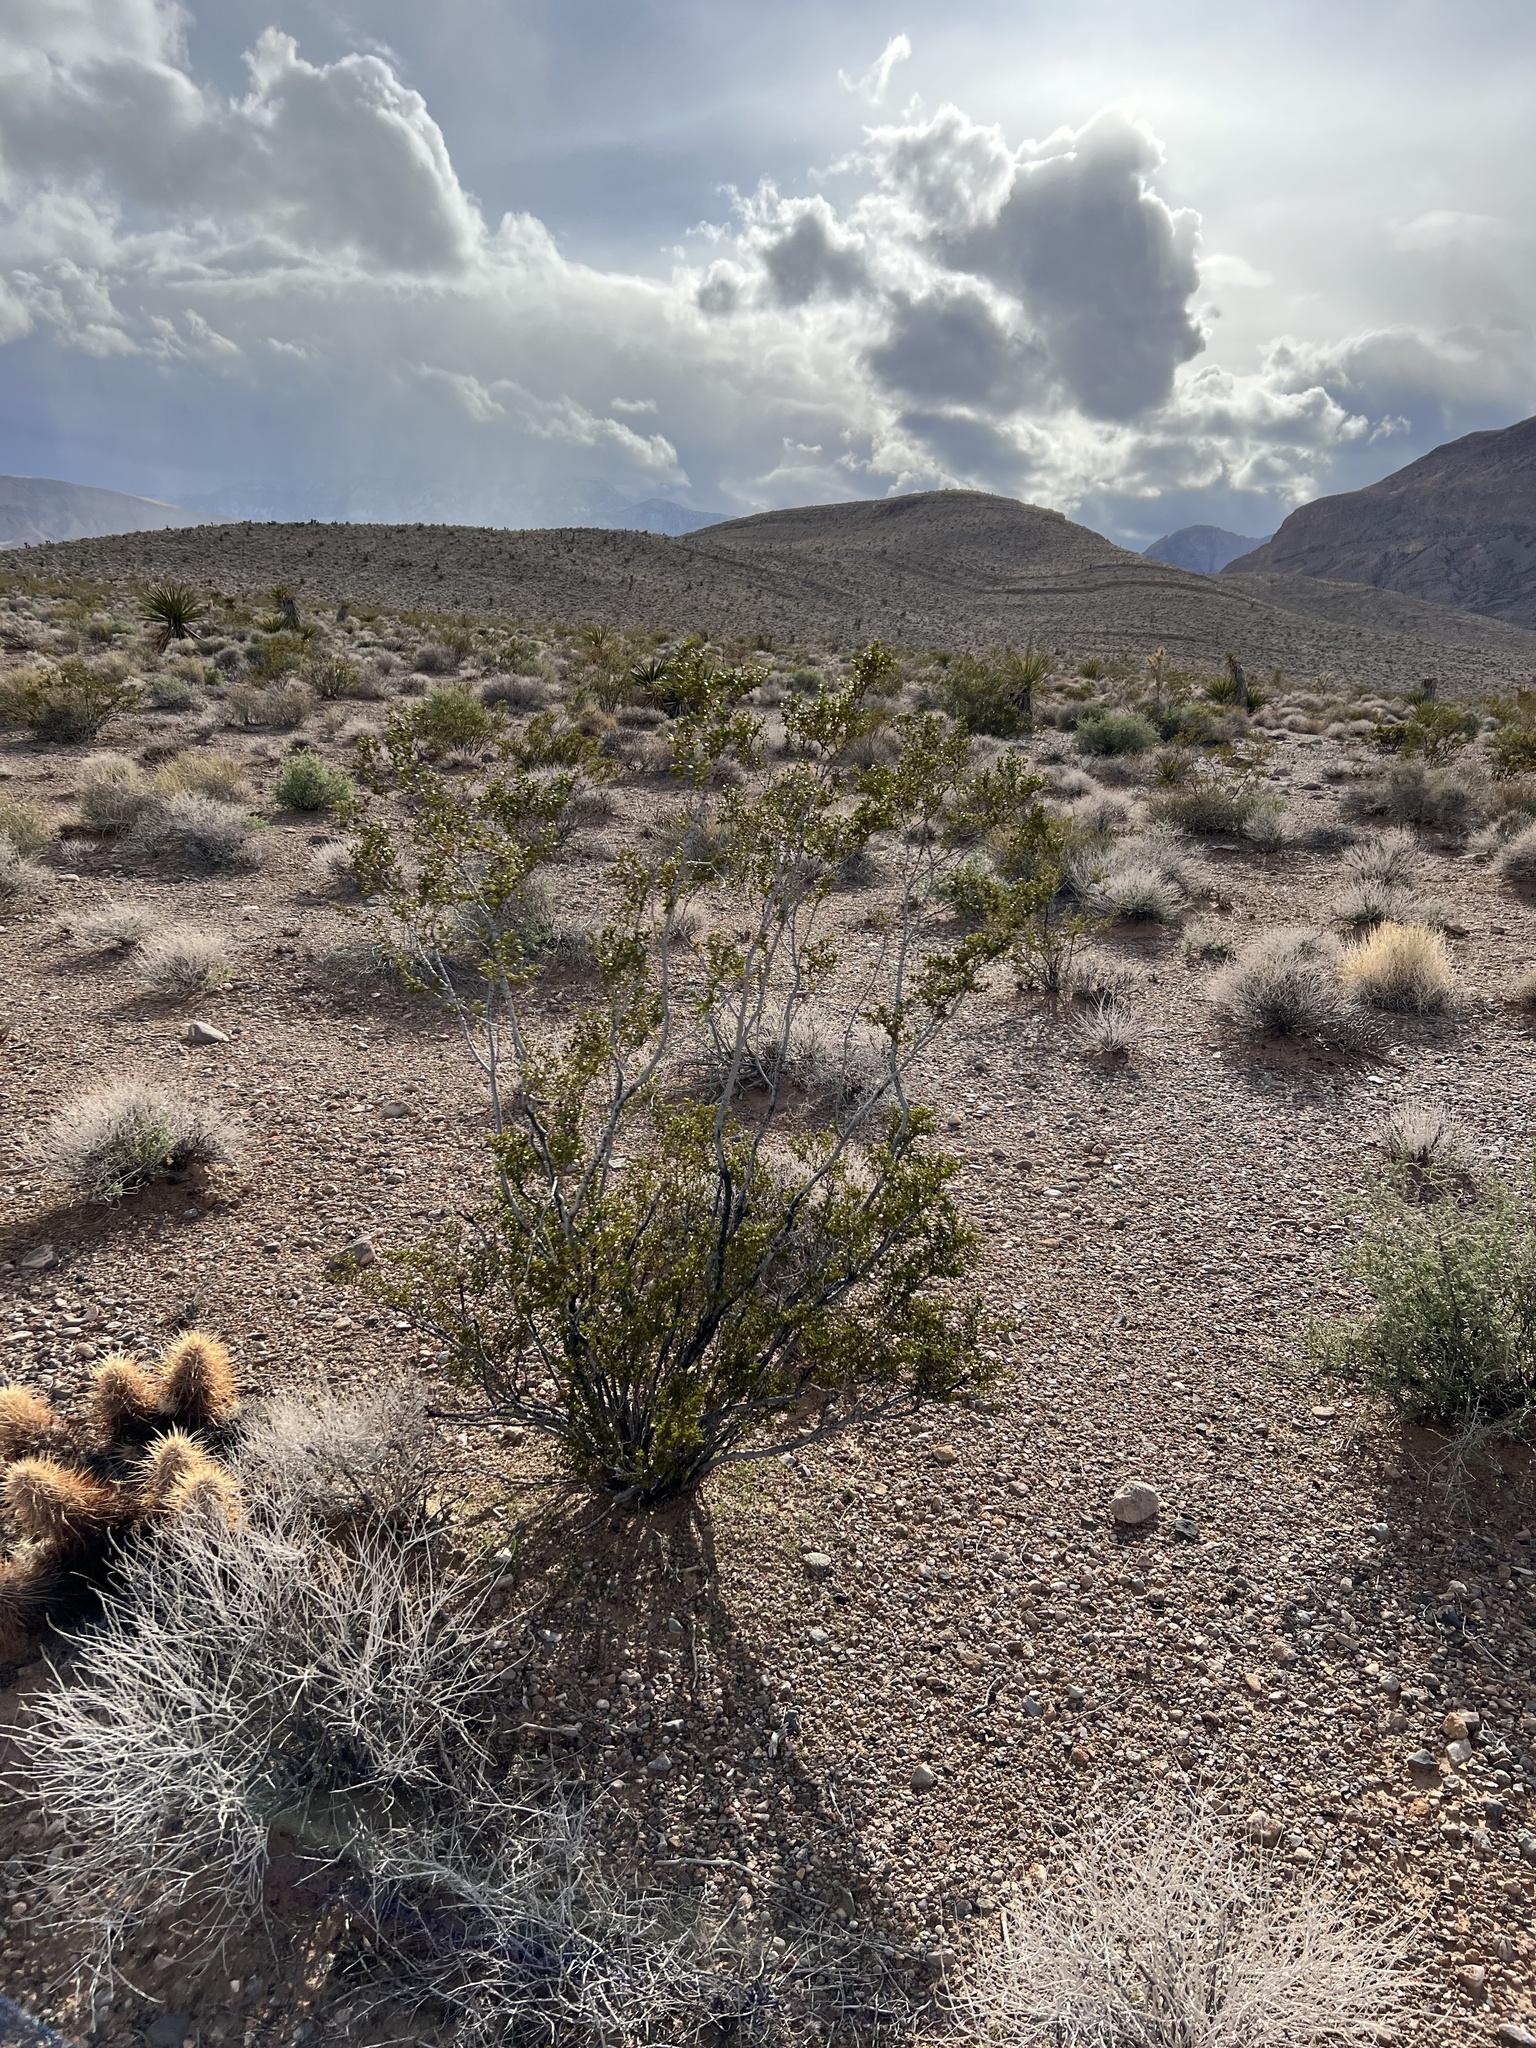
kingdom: Plantae
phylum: Tracheophyta
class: Magnoliopsida
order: Zygophyllales
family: Zygophyllaceae
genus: Larrea
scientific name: Larrea tridentata
